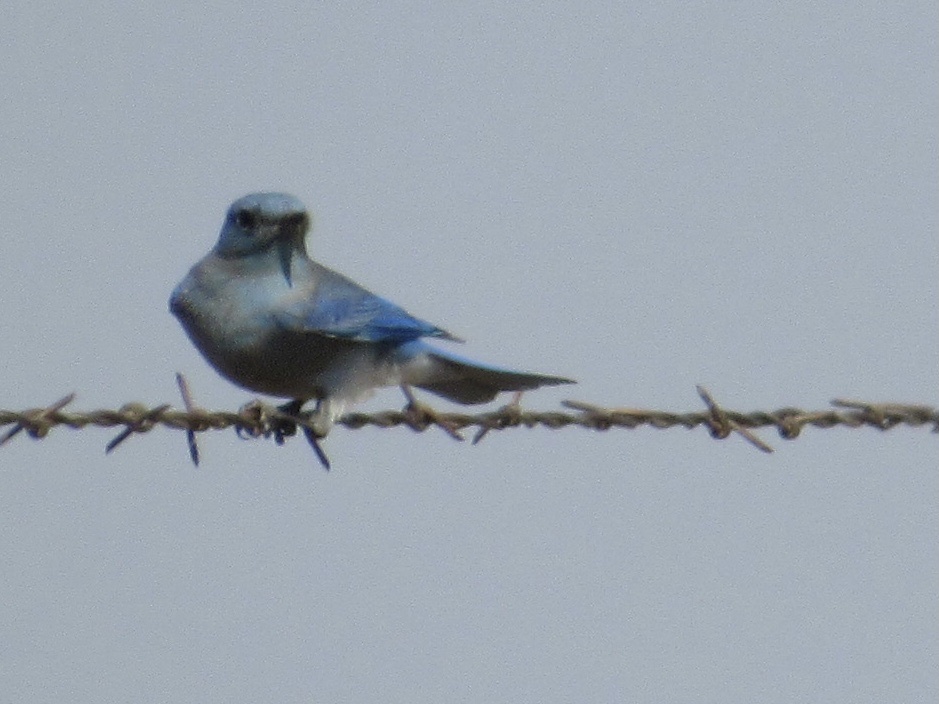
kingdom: Animalia
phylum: Chordata
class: Aves
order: Passeriformes
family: Turdidae
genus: Sialia
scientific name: Sialia currucoides
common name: Mountain bluebird
